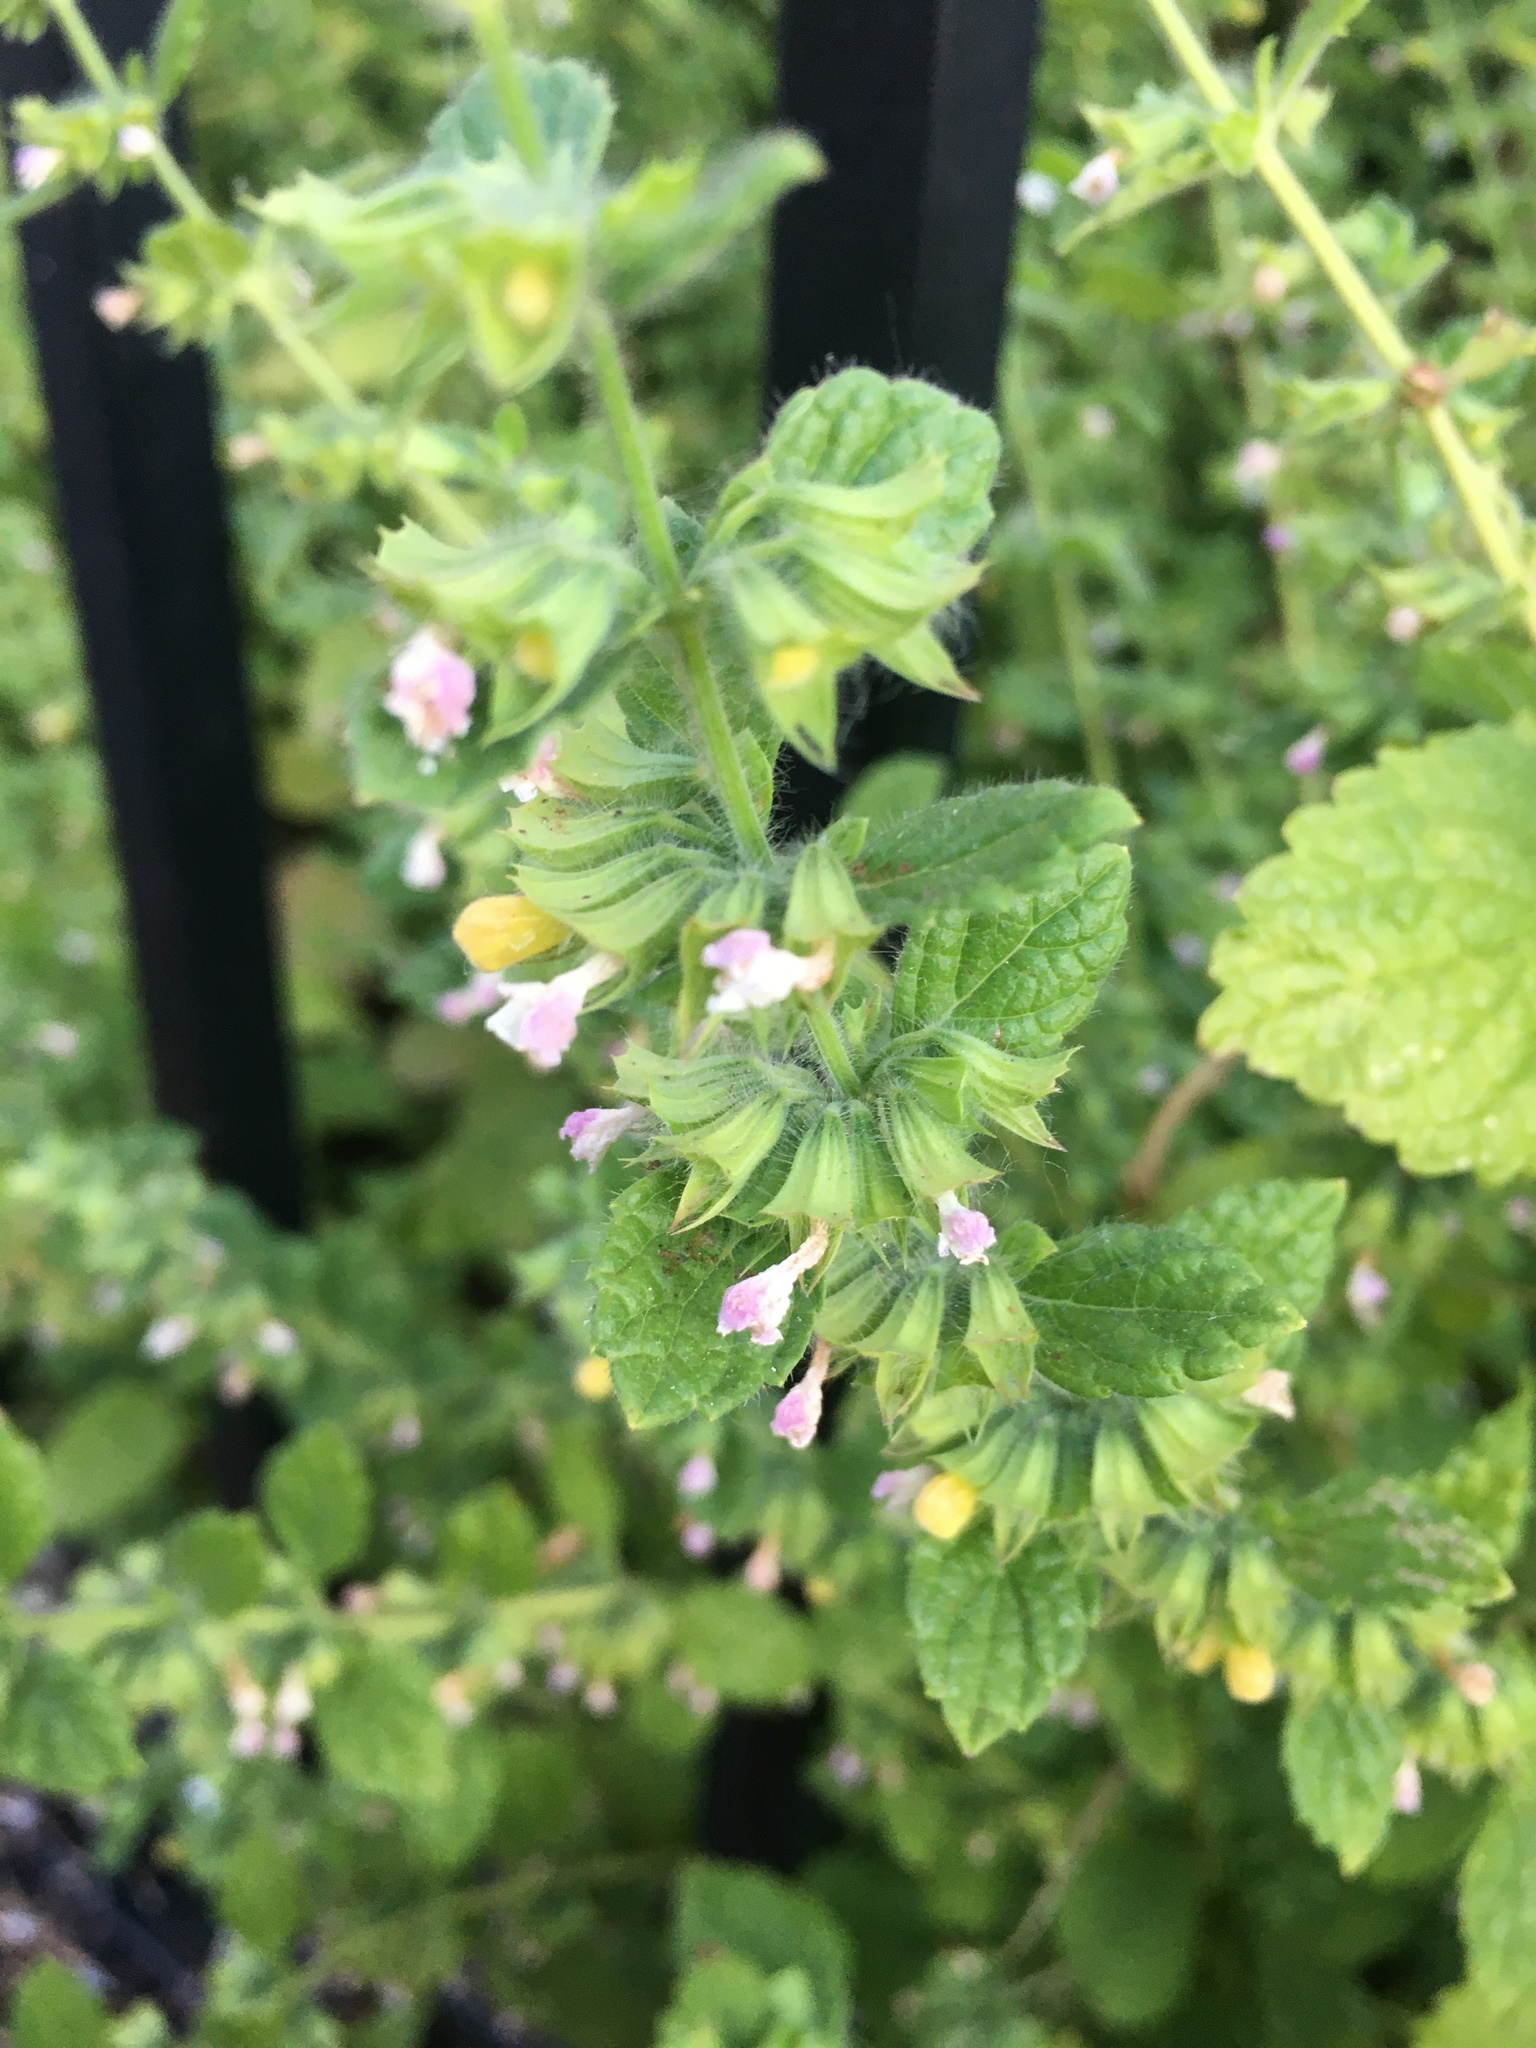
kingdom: Plantae
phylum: Tracheophyta
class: Magnoliopsida
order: Lamiales
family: Lamiaceae
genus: Melissa
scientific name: Melissa officinalis
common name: Balm
